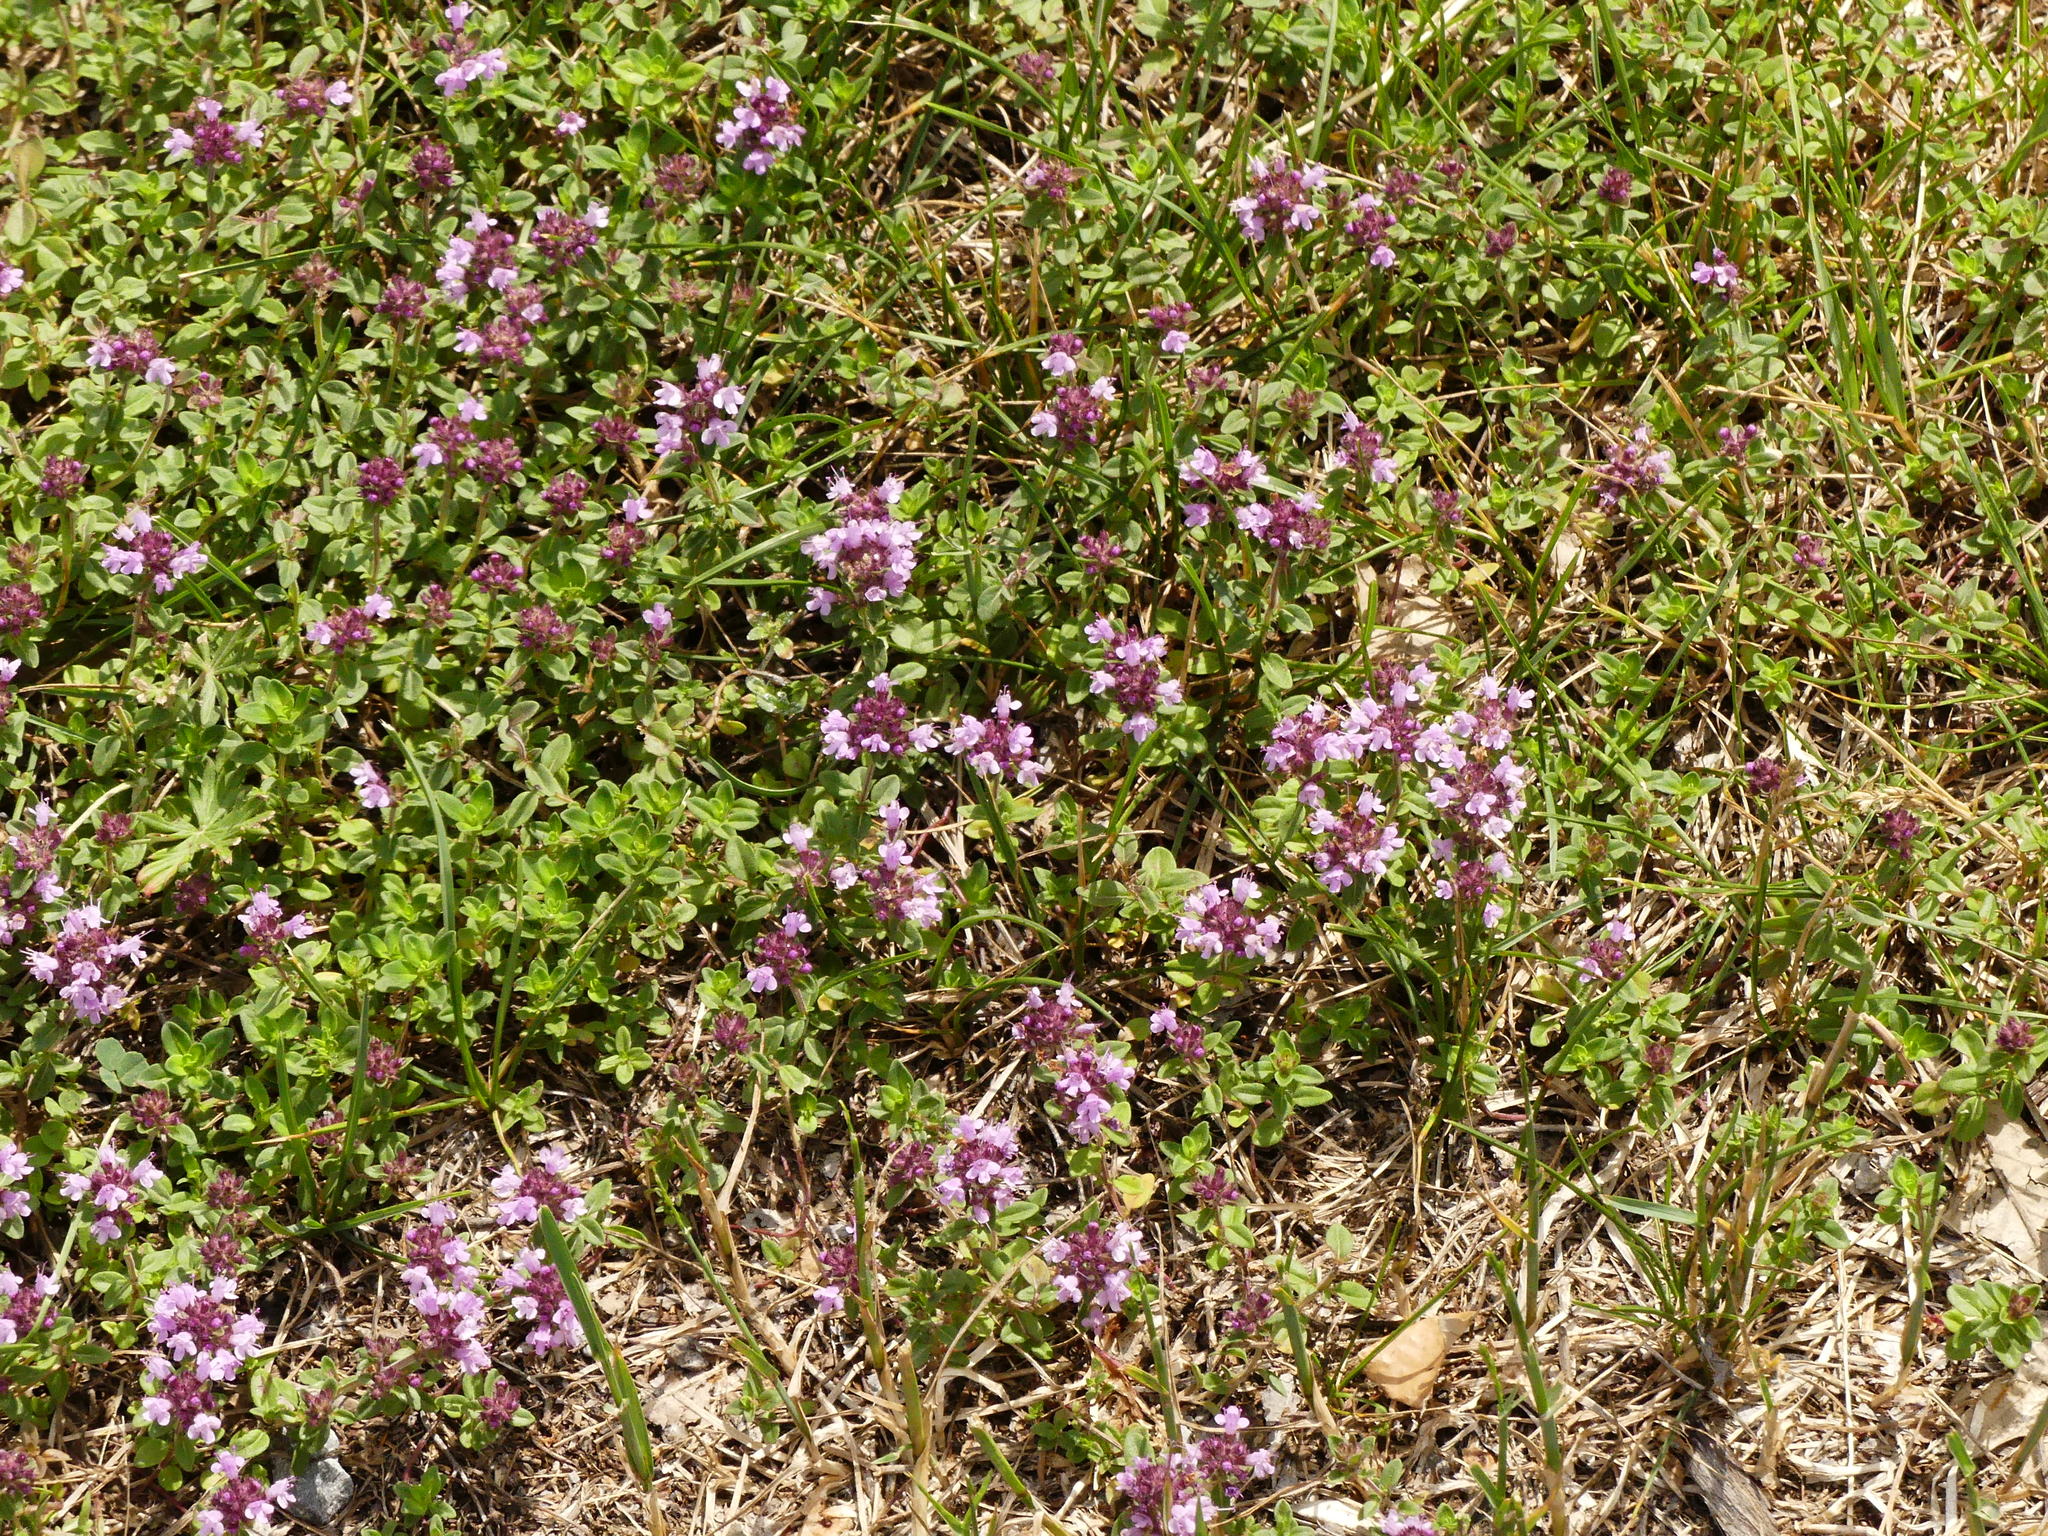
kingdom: Plantae
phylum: Tracheophyta
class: Magnoliopsida
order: Lamiales
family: Lamiaceae
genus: Thymus
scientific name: Thymus pulegioides
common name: Large thyme
